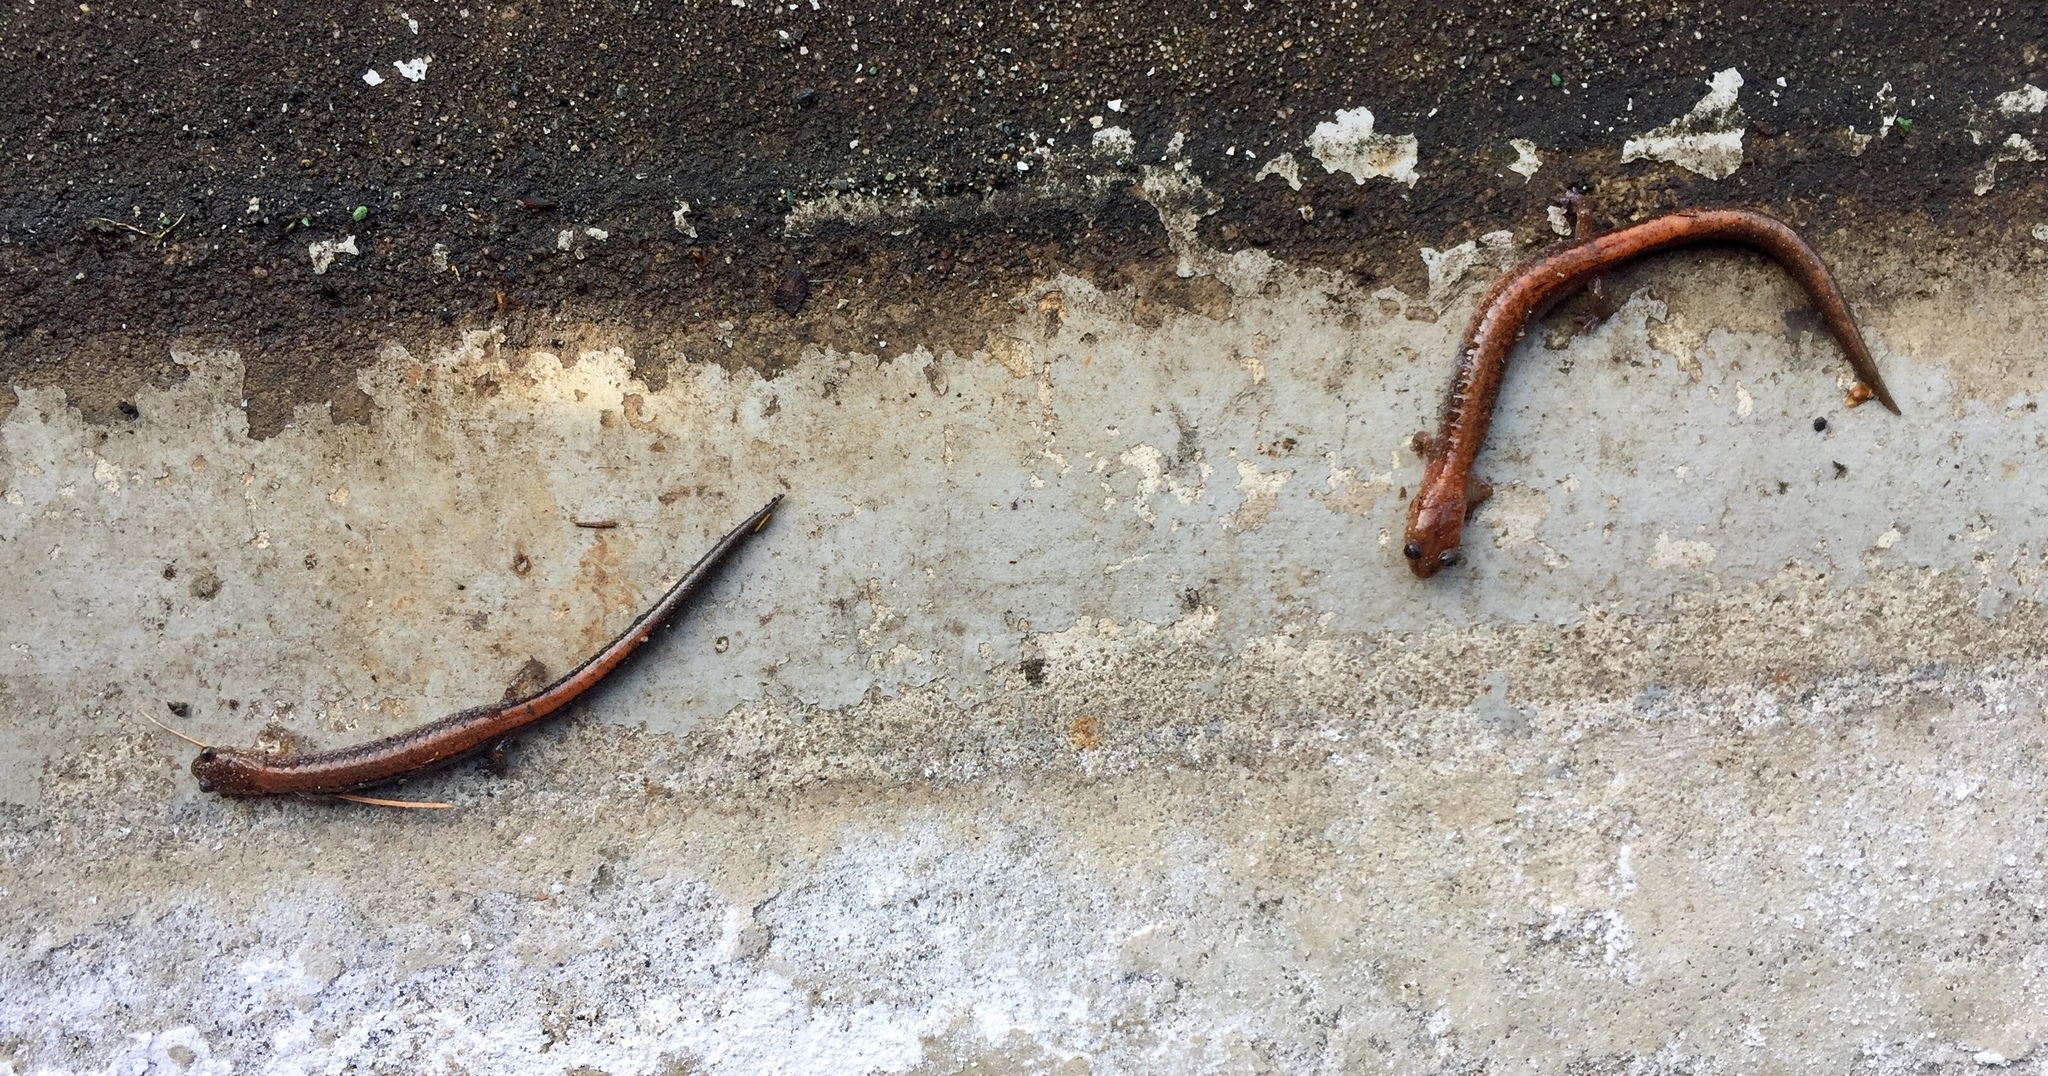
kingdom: Animalia
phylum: Chordata
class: Amphibia
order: Caudata
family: Plethodontidae
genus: Plethodon
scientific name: Plethodon cinereus
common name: Redback salamander
